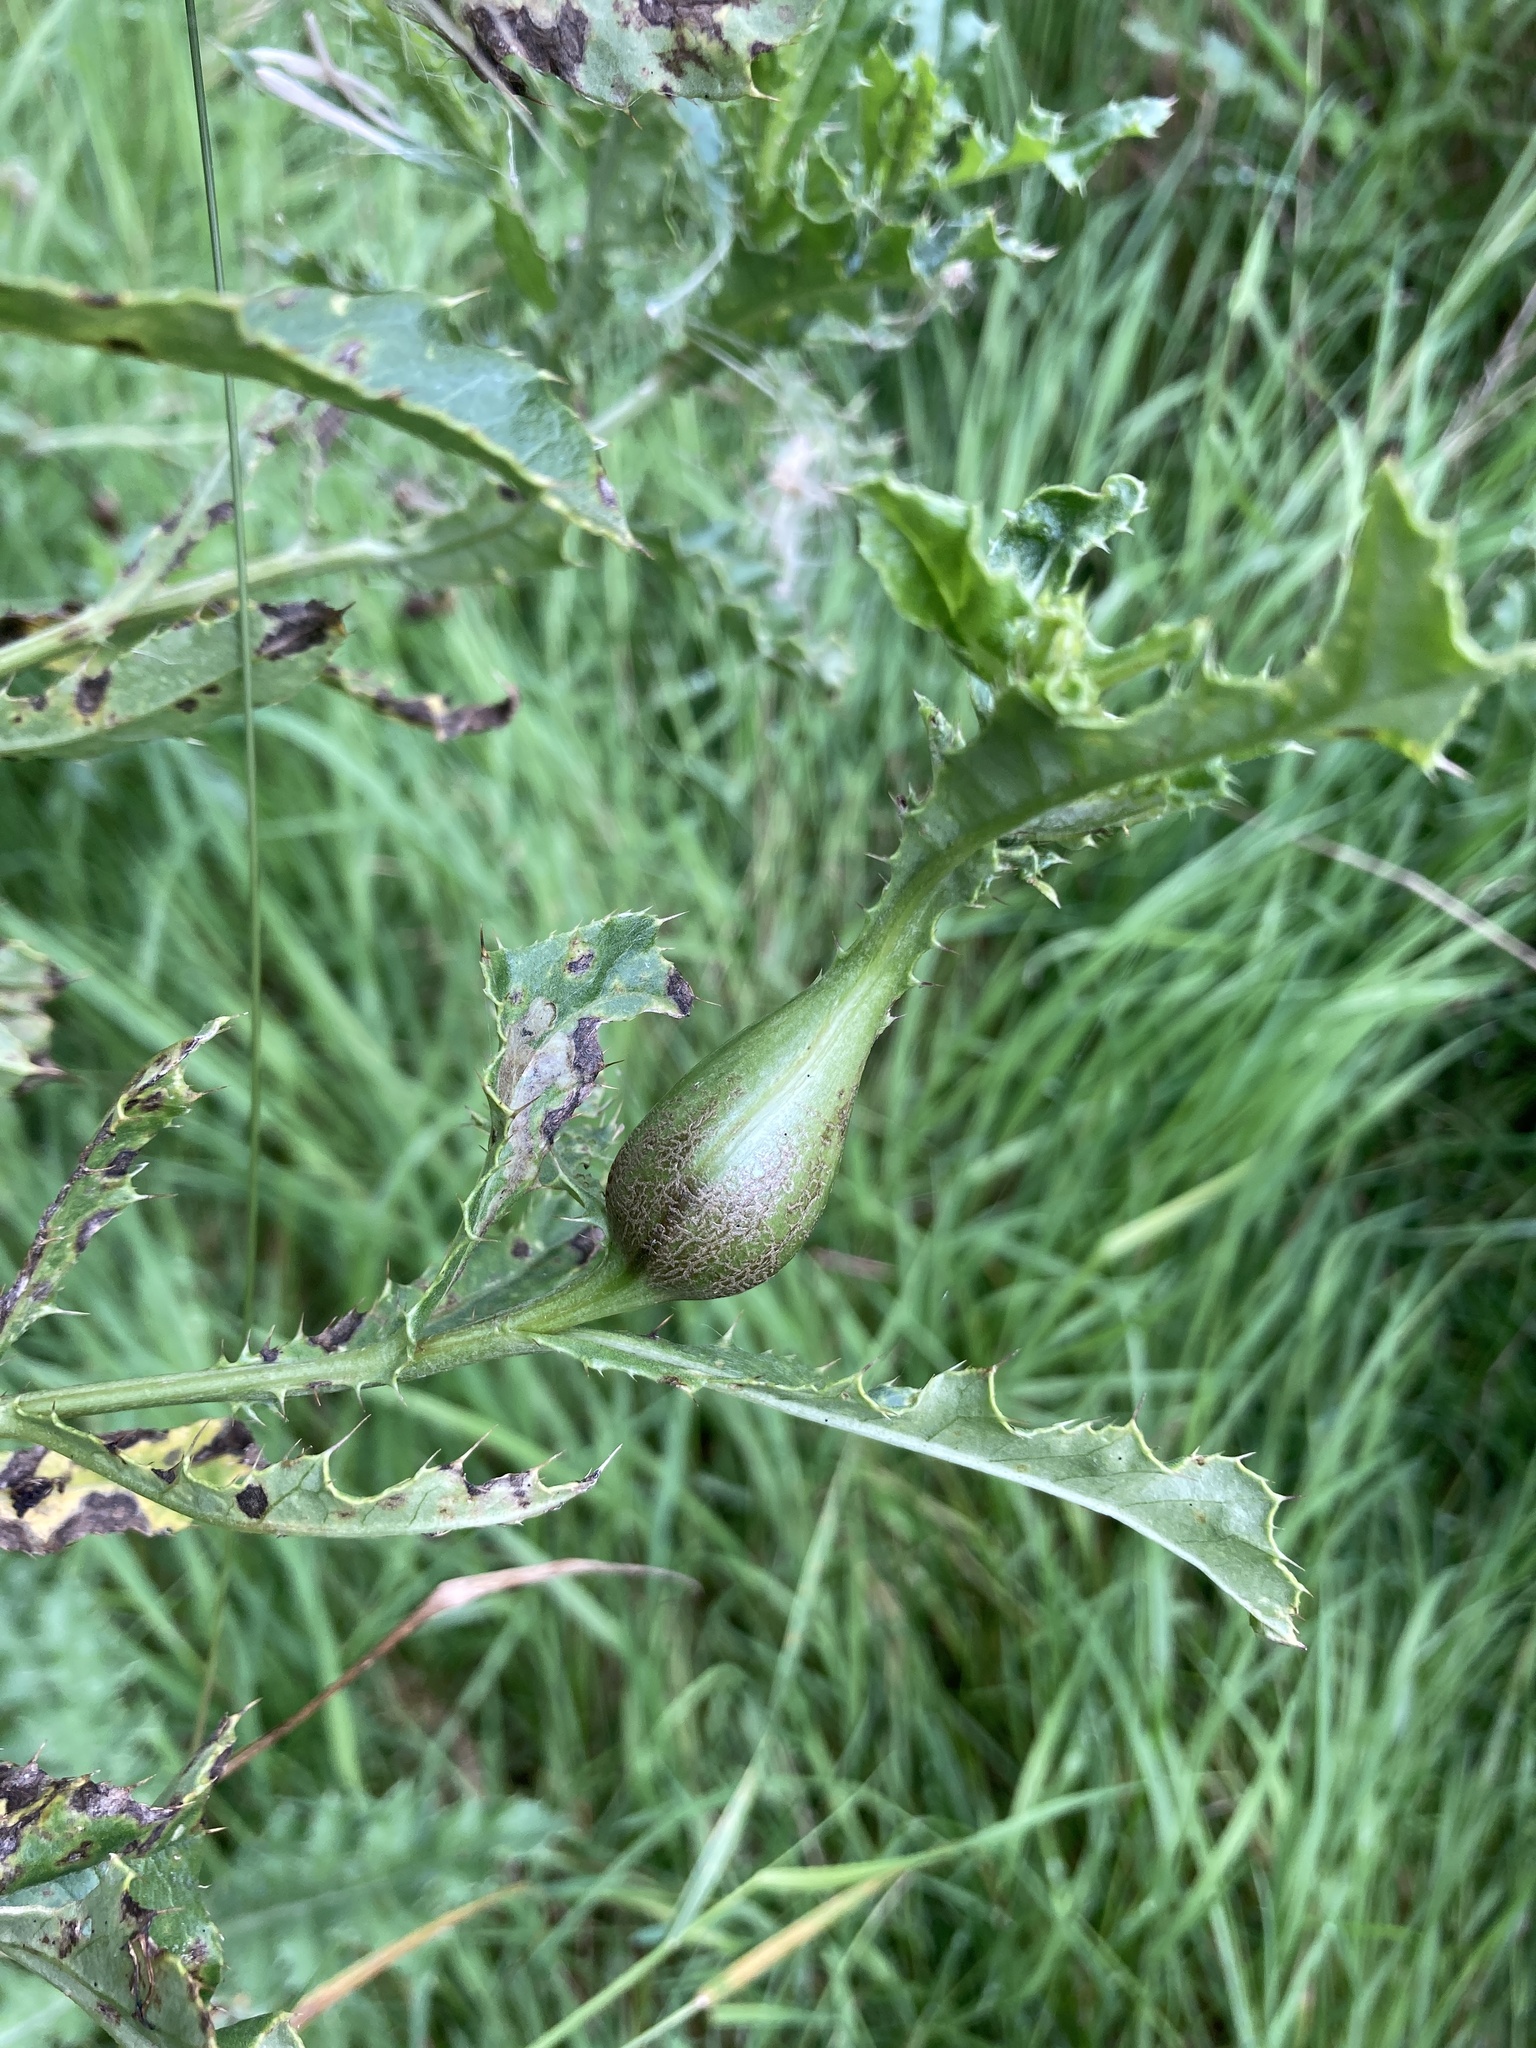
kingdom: Animalia
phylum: Arthropoda
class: Insecta
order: Diptera
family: Tephritidae
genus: Urophora
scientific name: Urophora cardui
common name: Fruit fly
